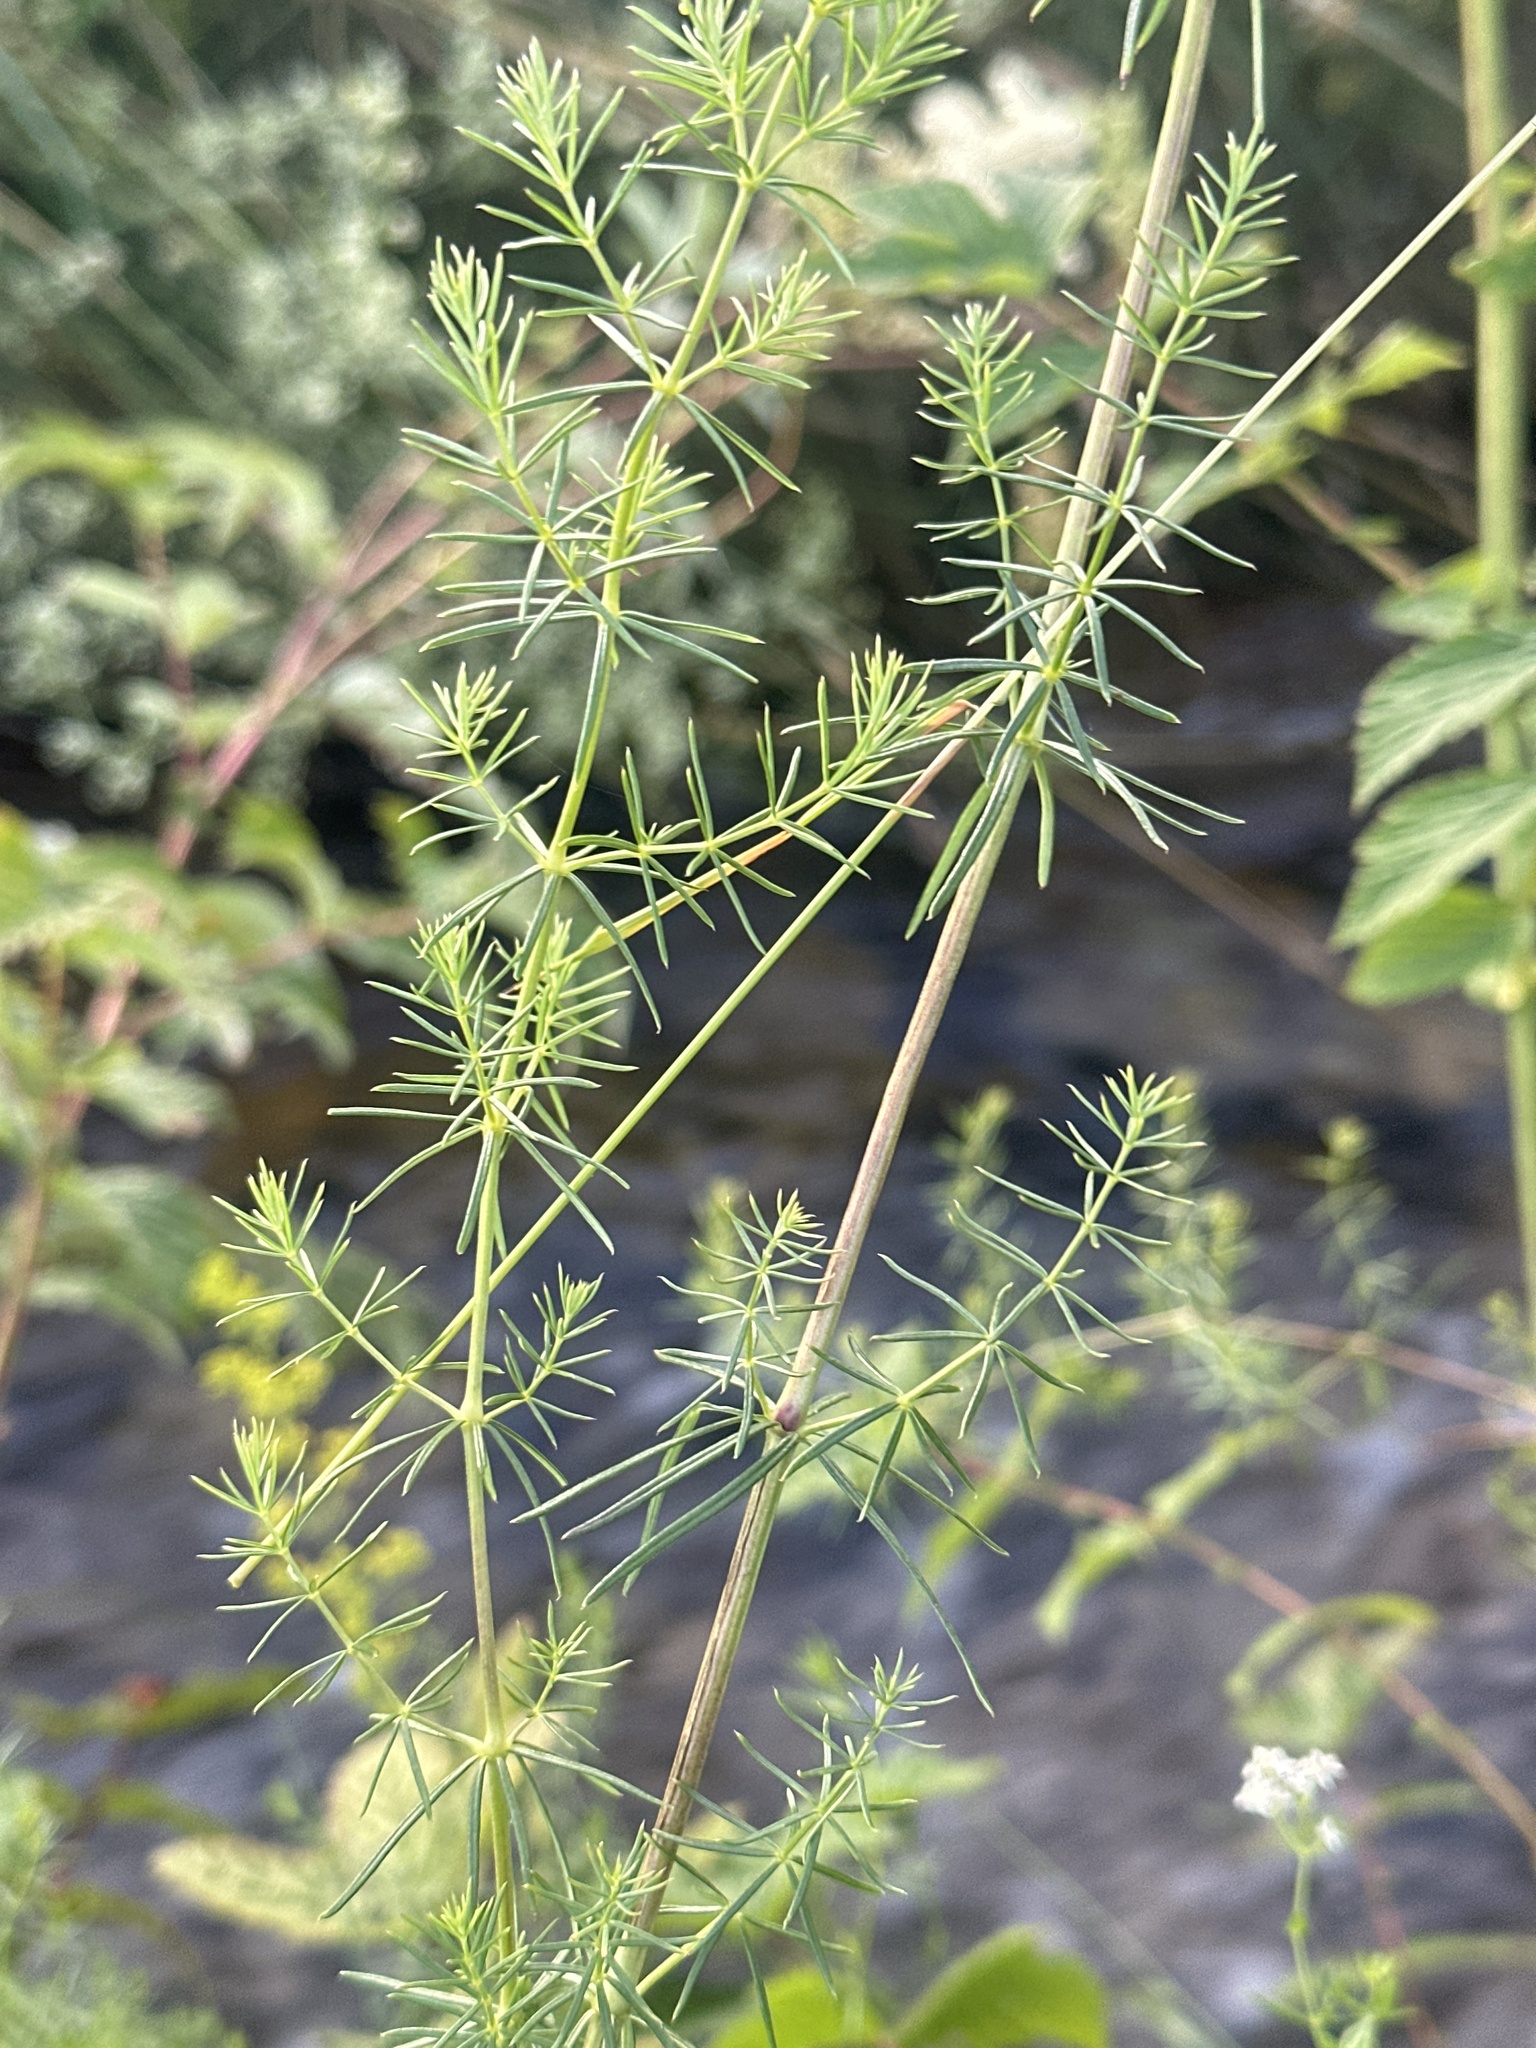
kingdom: Plantae
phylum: Tracheophyta
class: Magnoliopsida
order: Gentianales
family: Rubiaceae
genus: Galium
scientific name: Galium verum
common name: Lady's bedstraw
